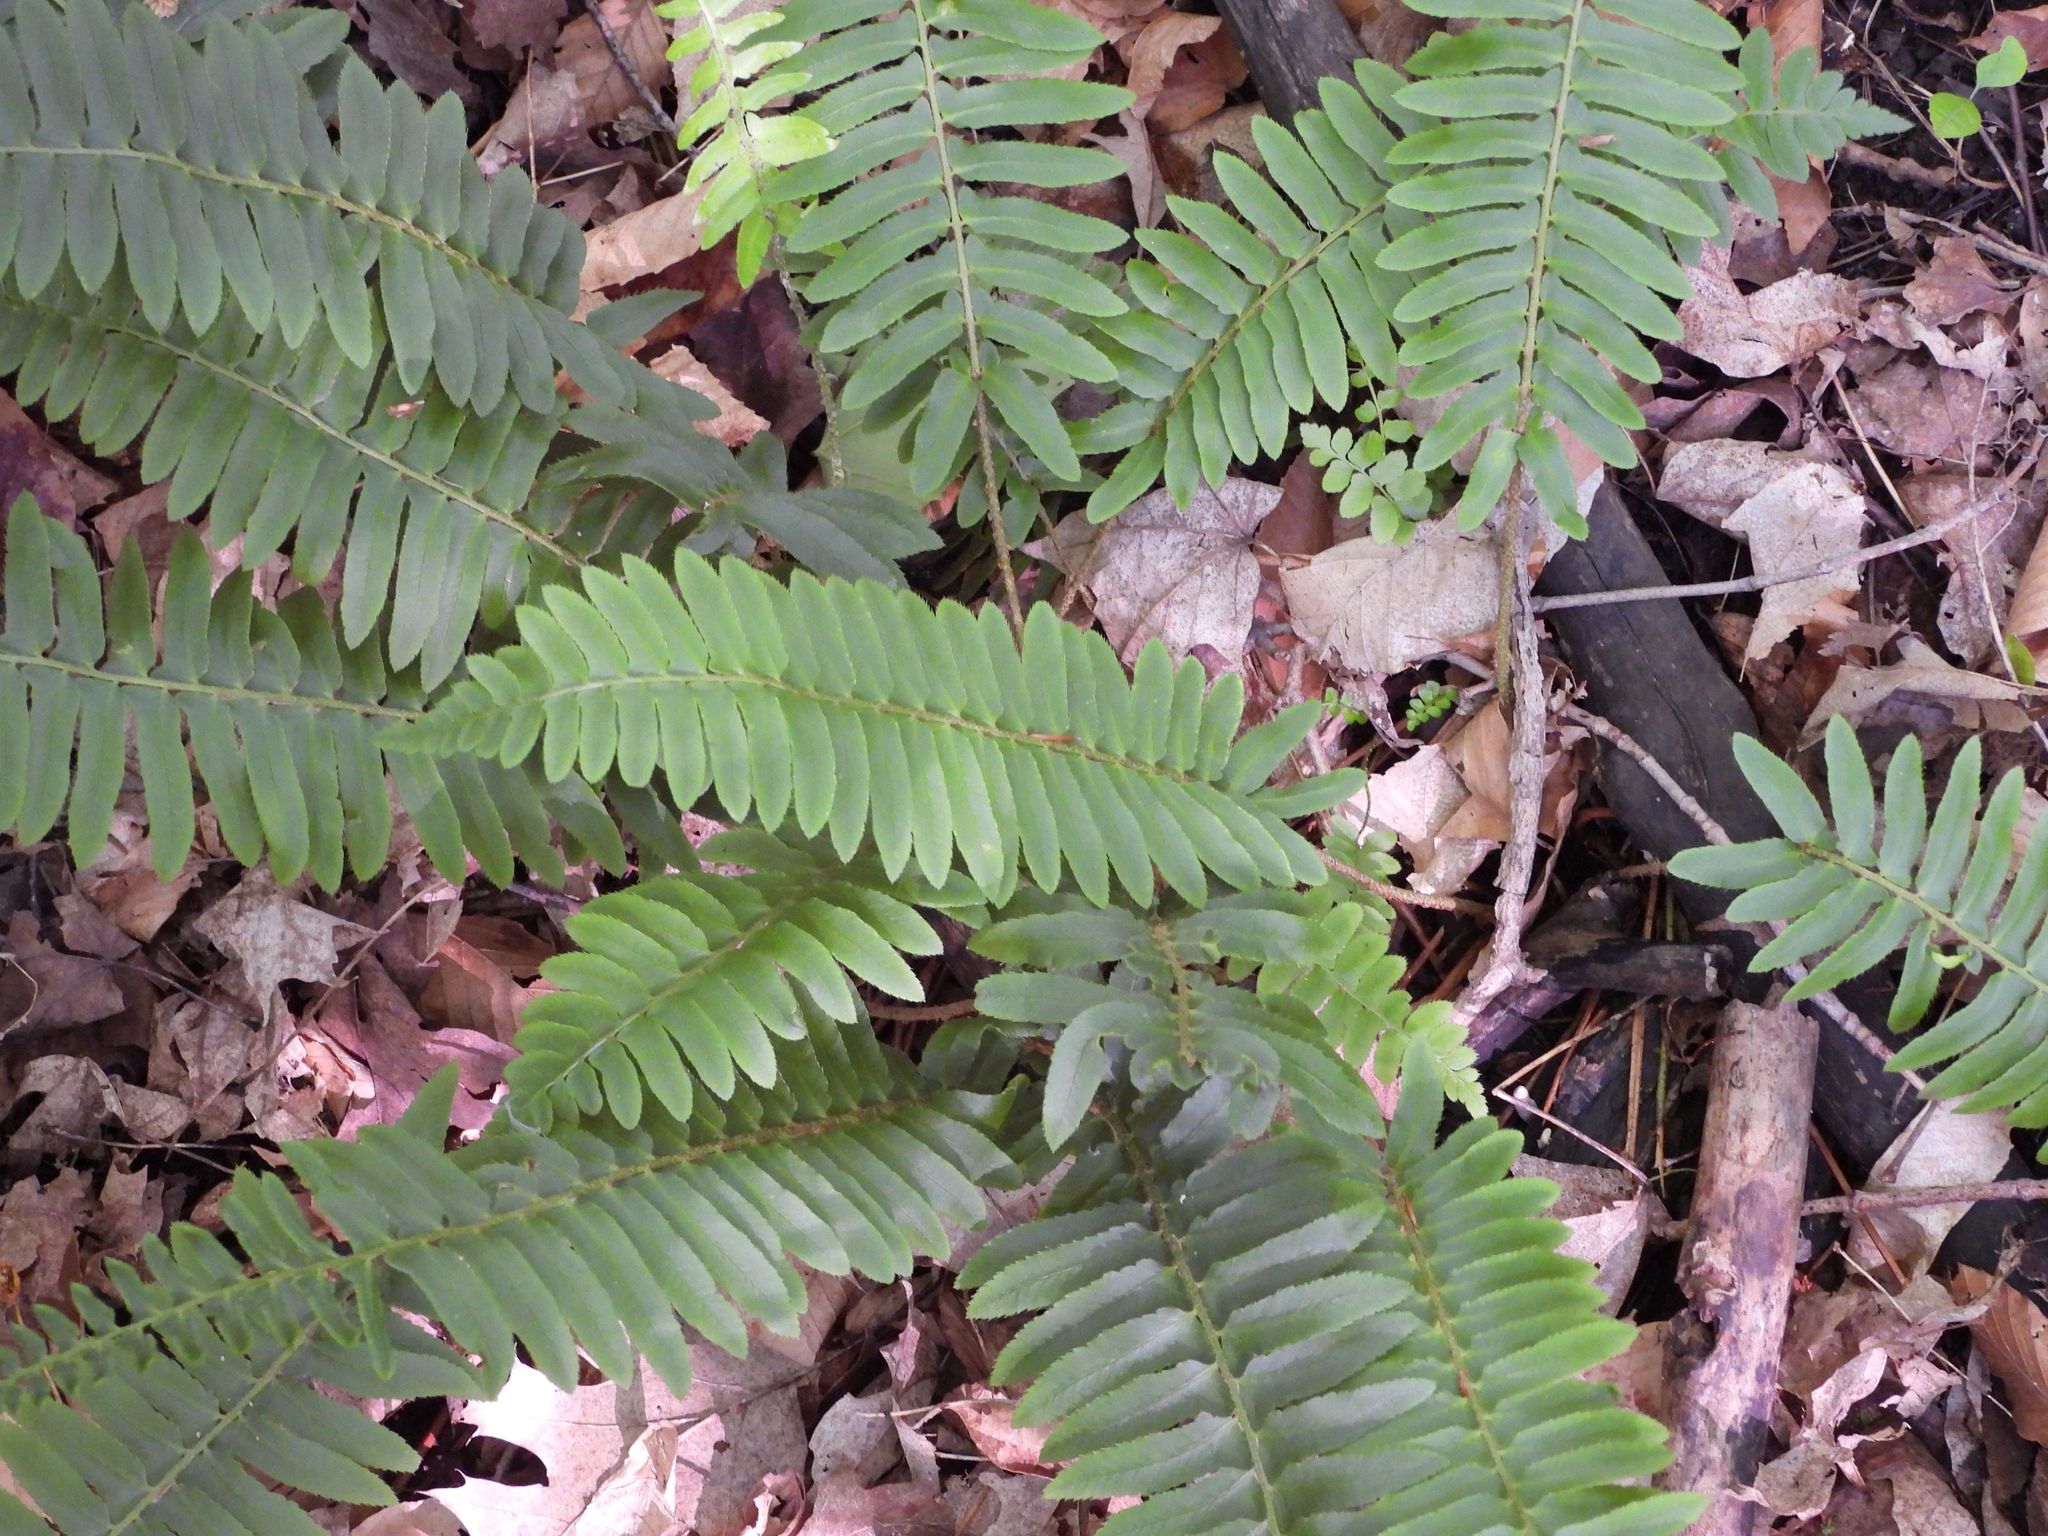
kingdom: Plantae
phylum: Tracheophyta
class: Polypodiopsida
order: Polypodiales
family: Dryopteridaceae
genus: Polystichum
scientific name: Polystichum acrostichoides
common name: Christmas fern
